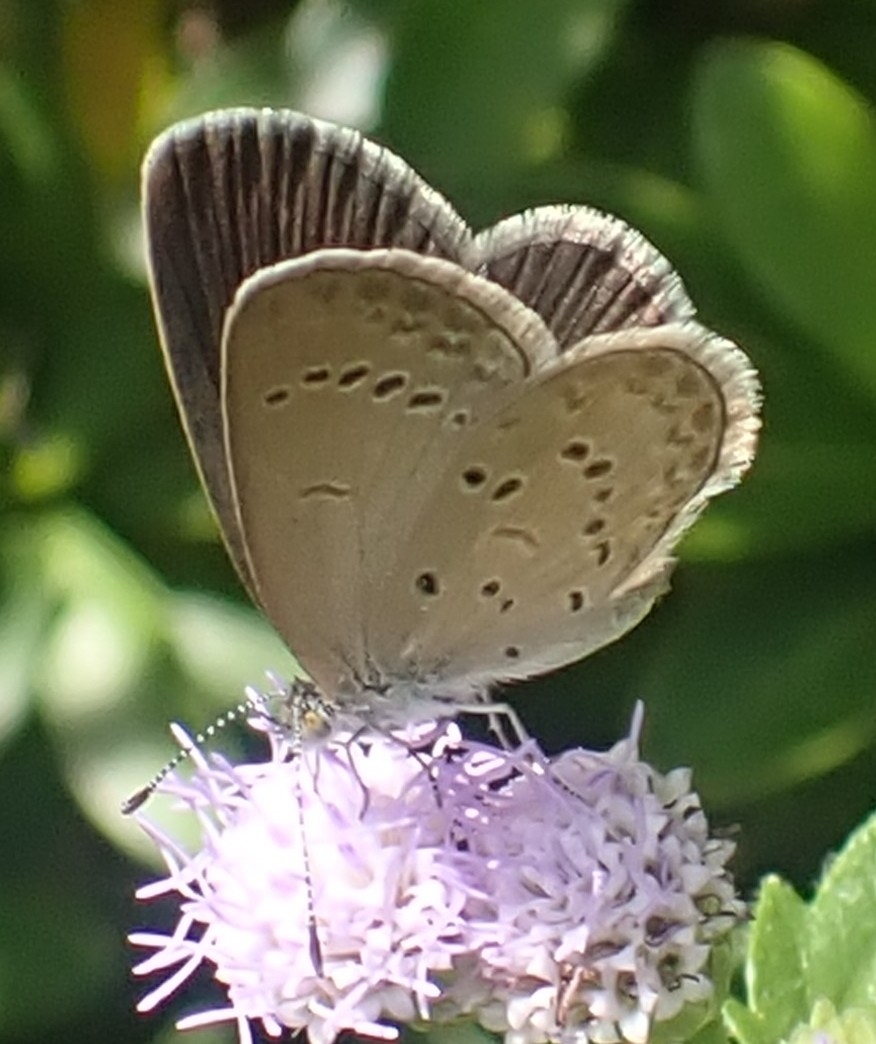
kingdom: Animalia
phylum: Arthropoda
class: Insecta
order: Lepidoptera
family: Lycaenidae
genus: Zizina
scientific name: Zizina otis
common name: Lesser grass blue
